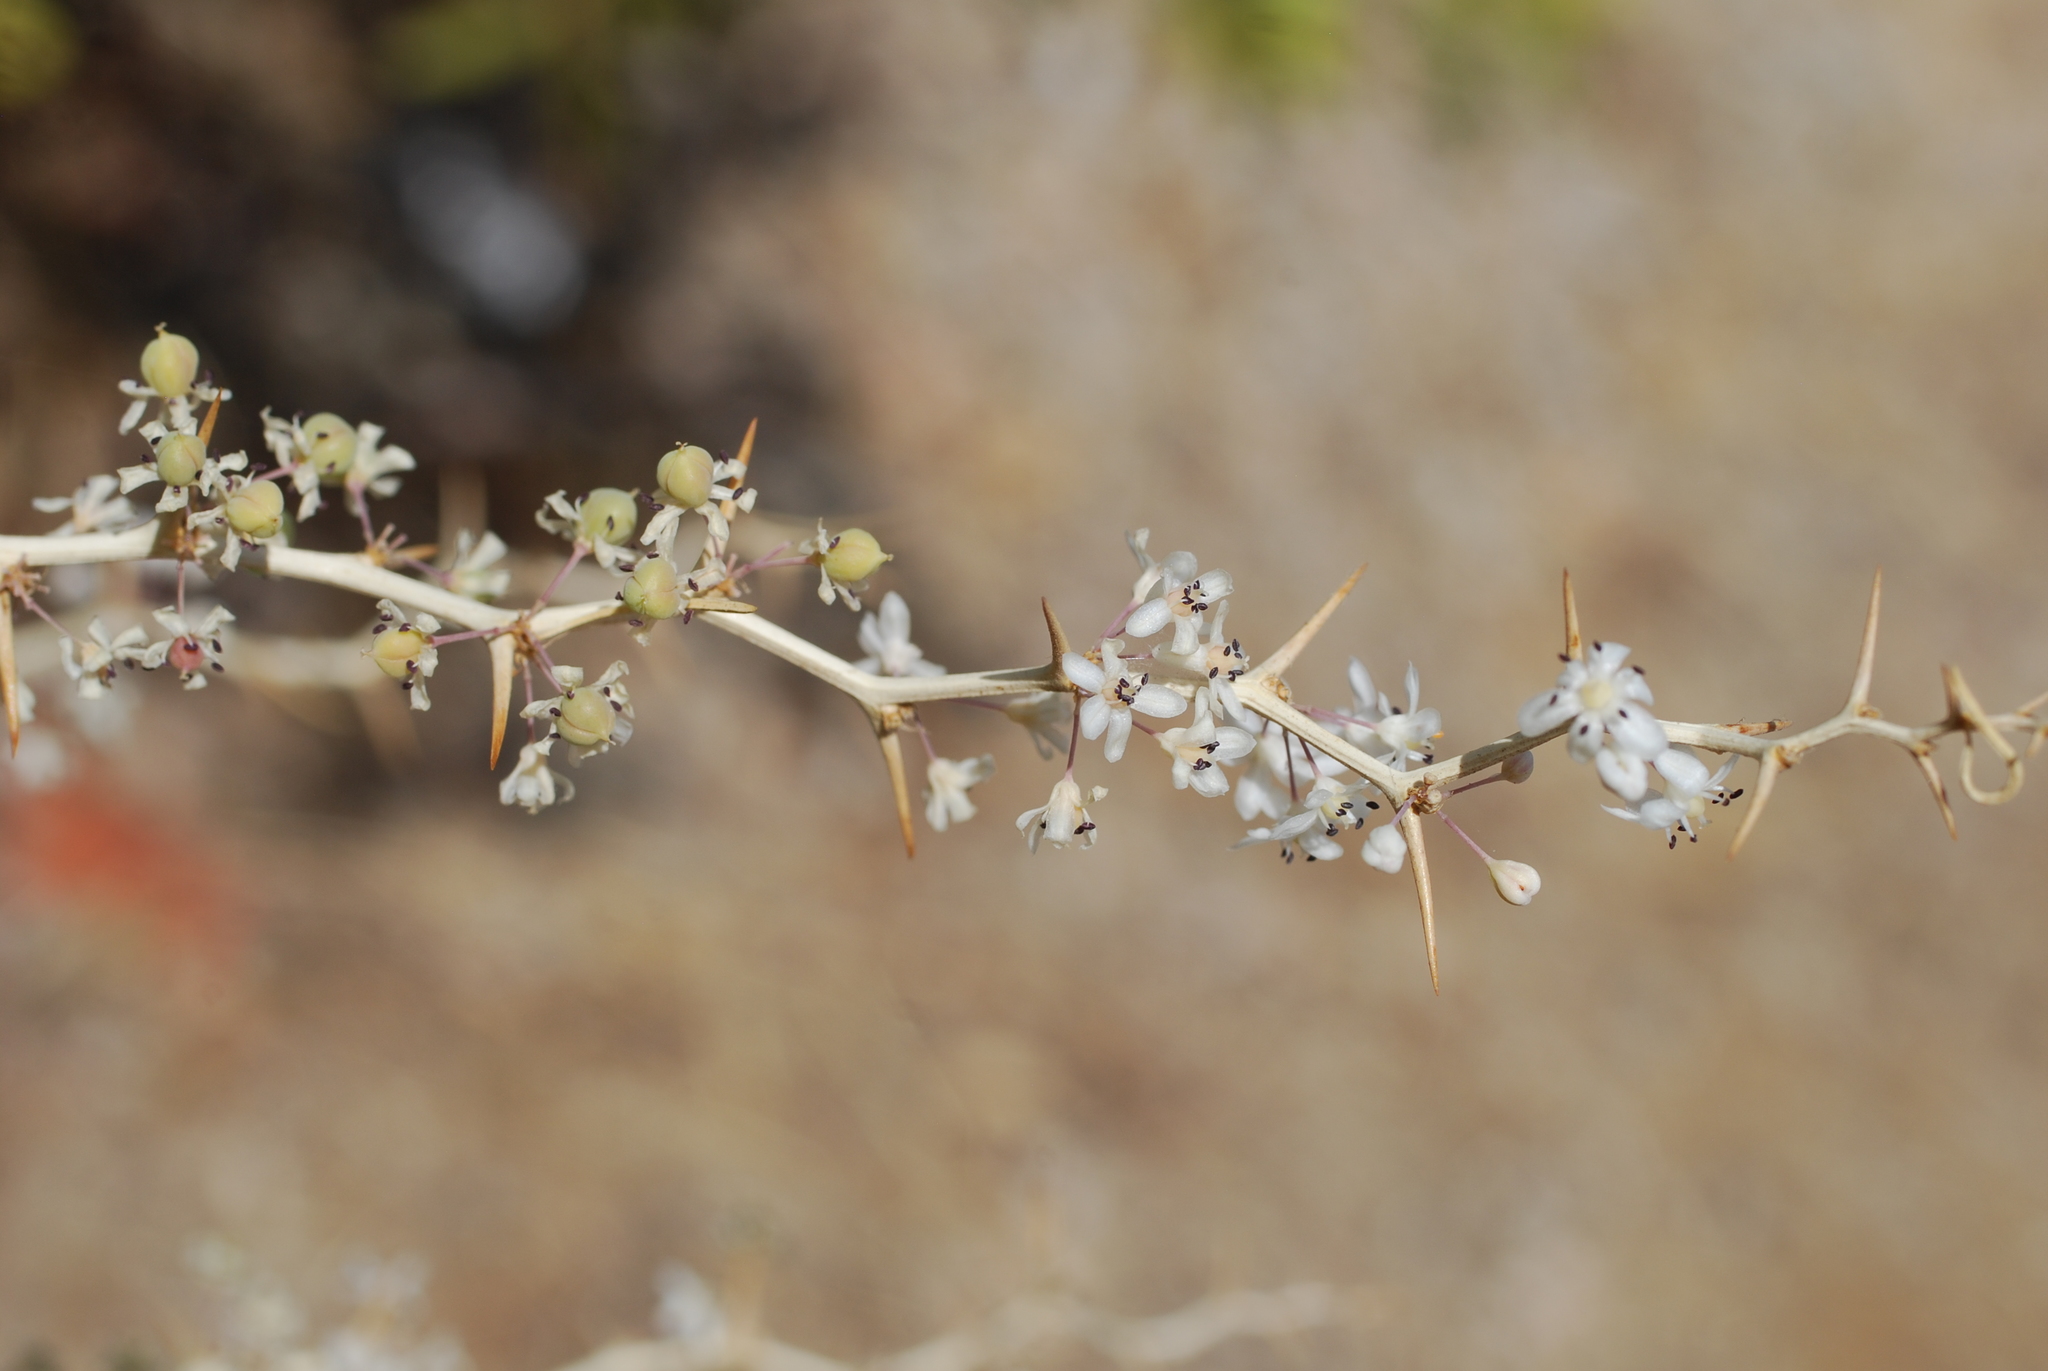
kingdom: Plantae
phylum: Tracheophyta
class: Liliopsida
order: Asparagales
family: Asparagaceae
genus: Asparagus
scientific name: Asparagus albus
